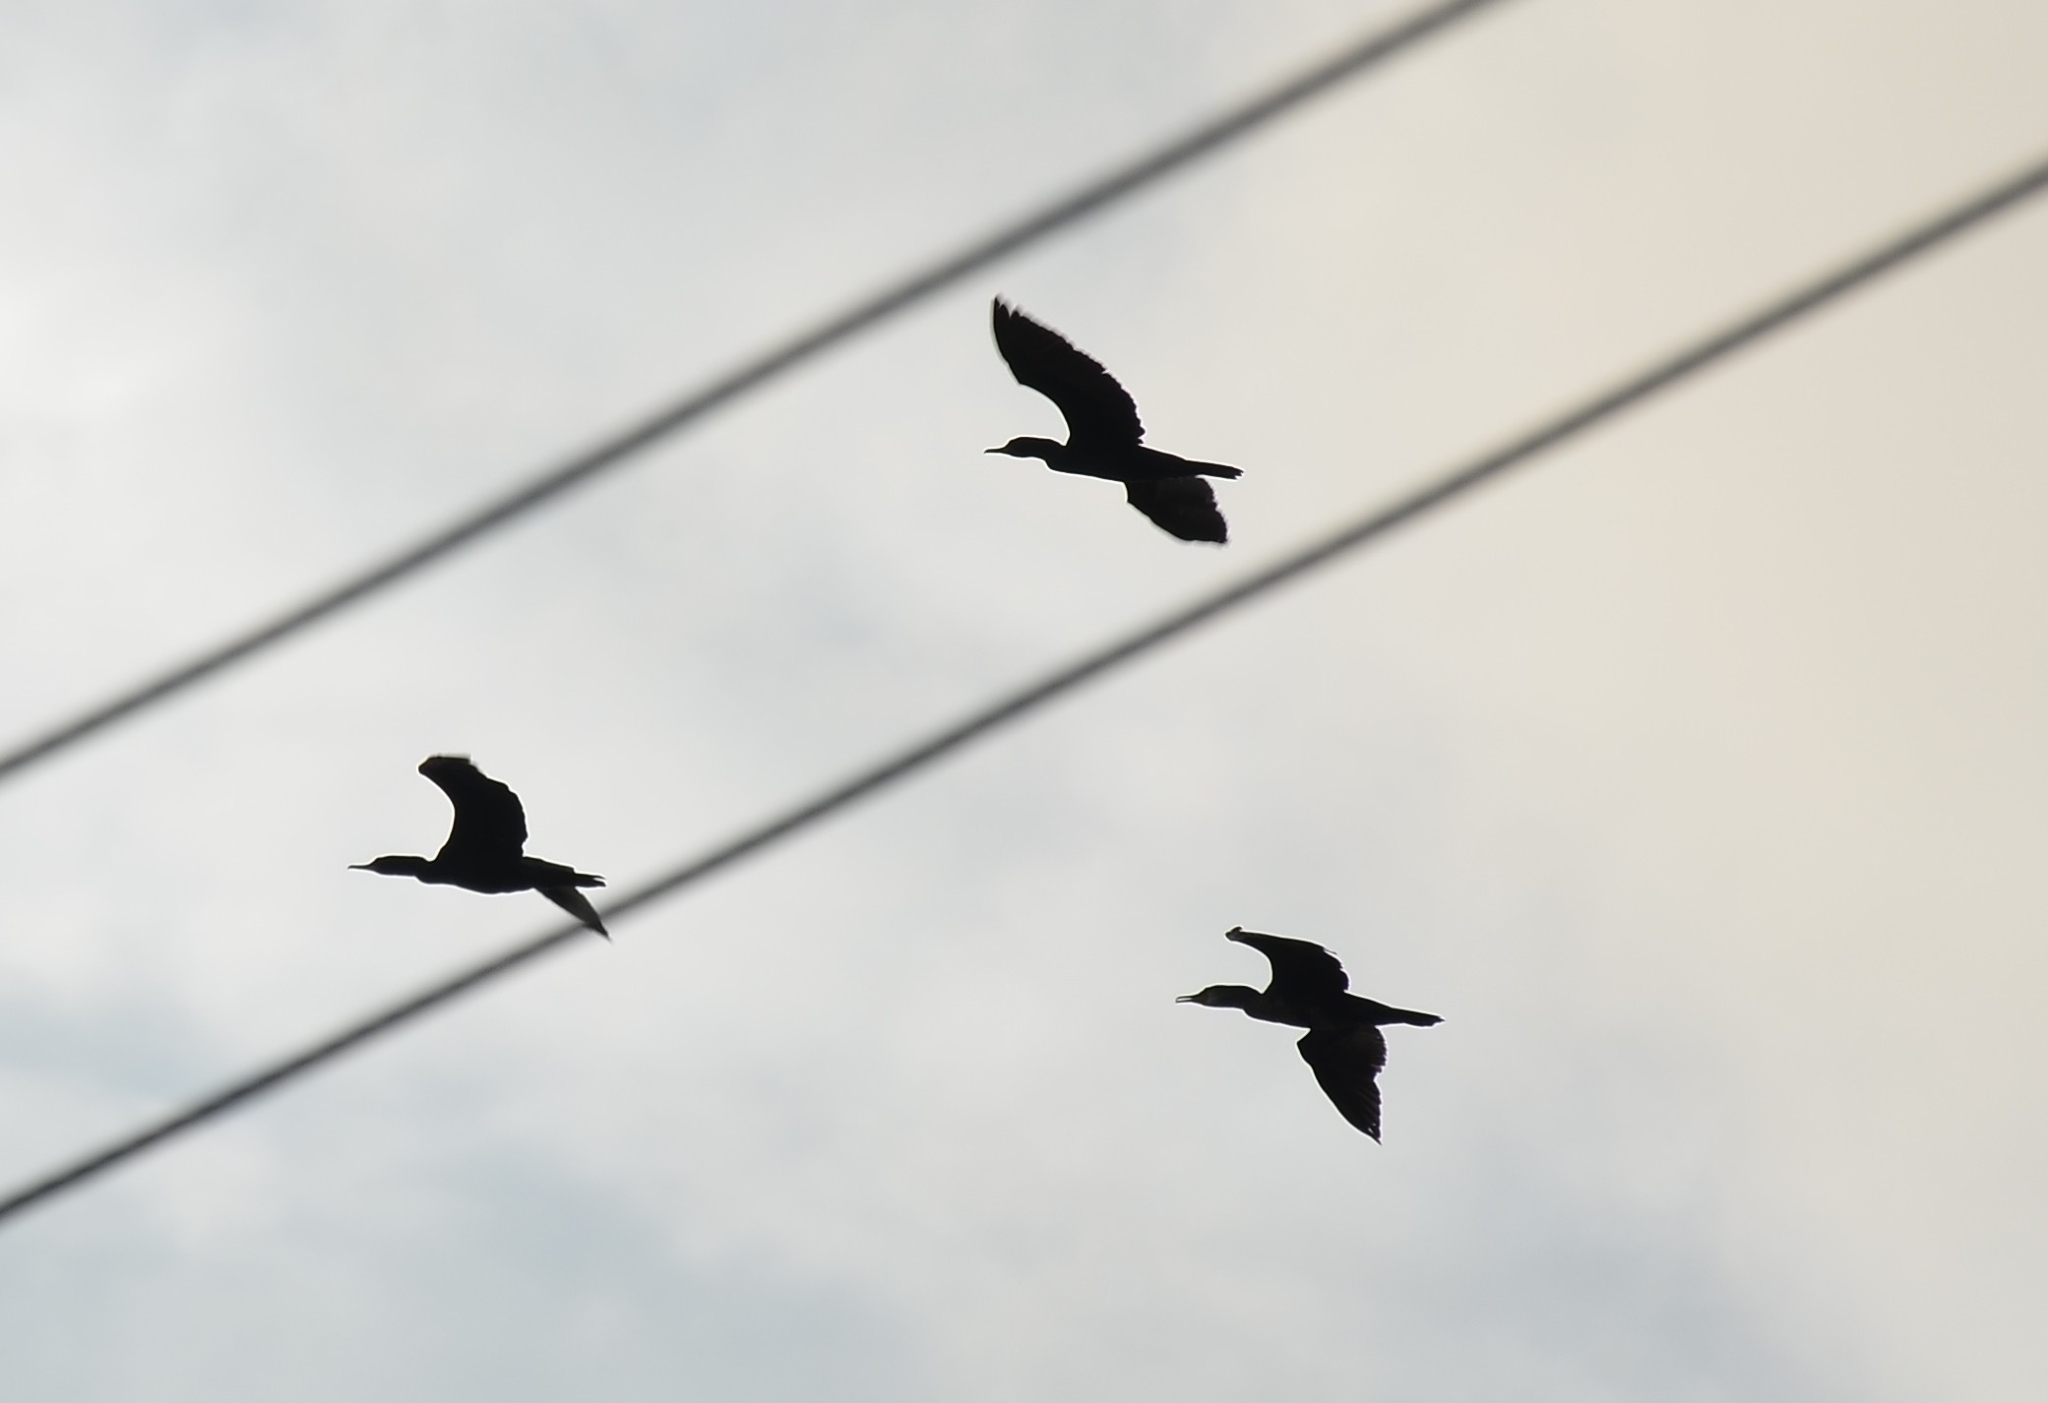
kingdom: Animalia
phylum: Chordata
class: Aves
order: Suliformes
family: Phalacrocoracidae
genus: Phalacrocorax
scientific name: Phalacrocorax fuscicollis
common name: Indian cormorant
